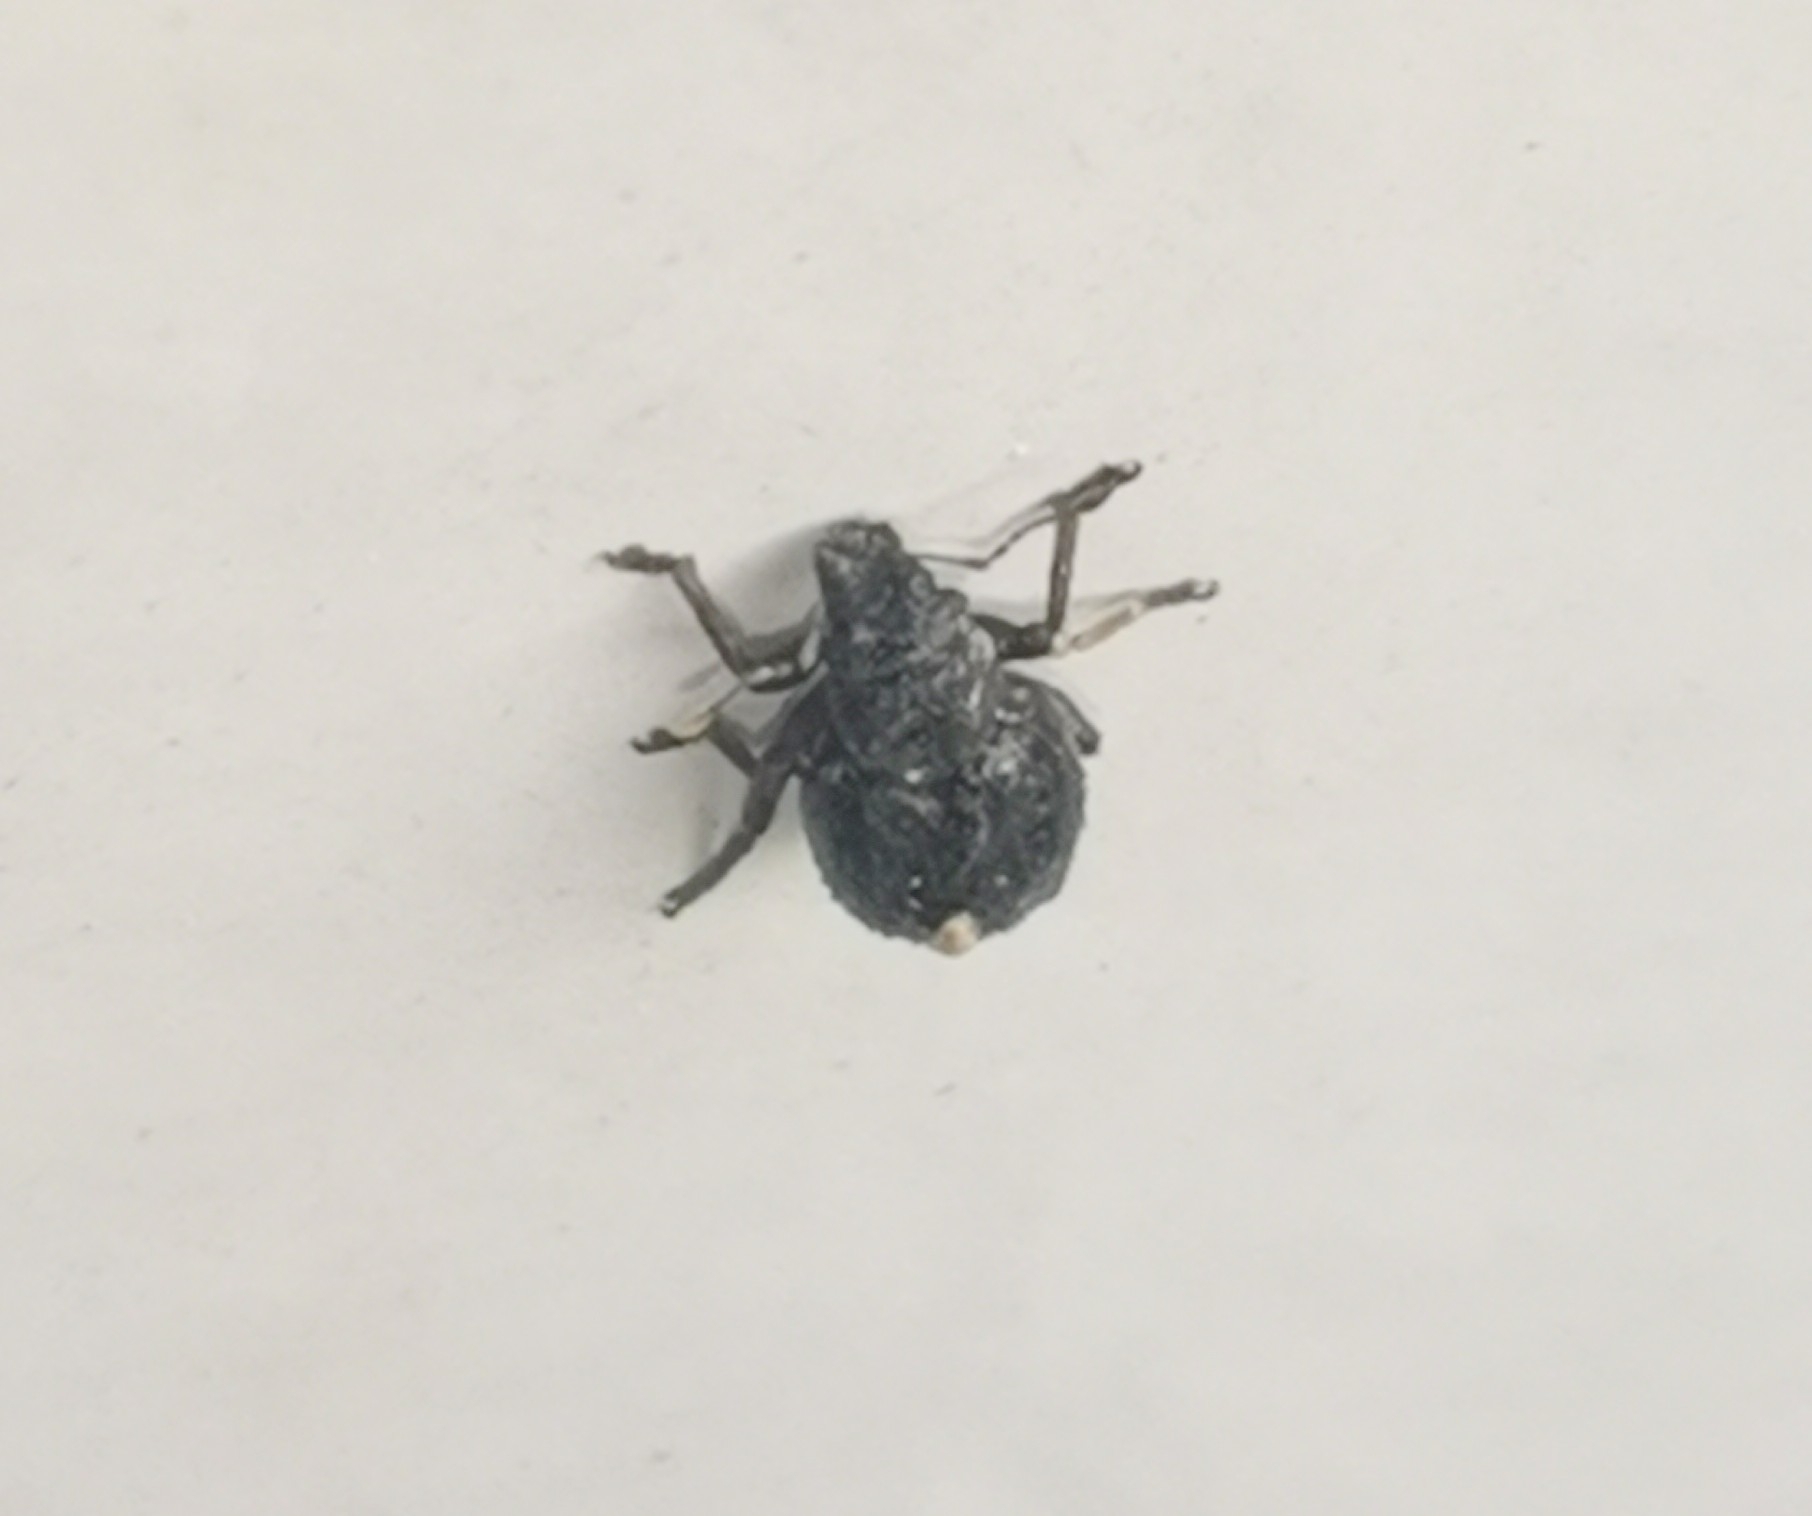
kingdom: Animalia
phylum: Arthropoda
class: Insecta
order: Coleoptera
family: Curculionidae
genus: Strophosoma
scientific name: Strophosoma capitatum
